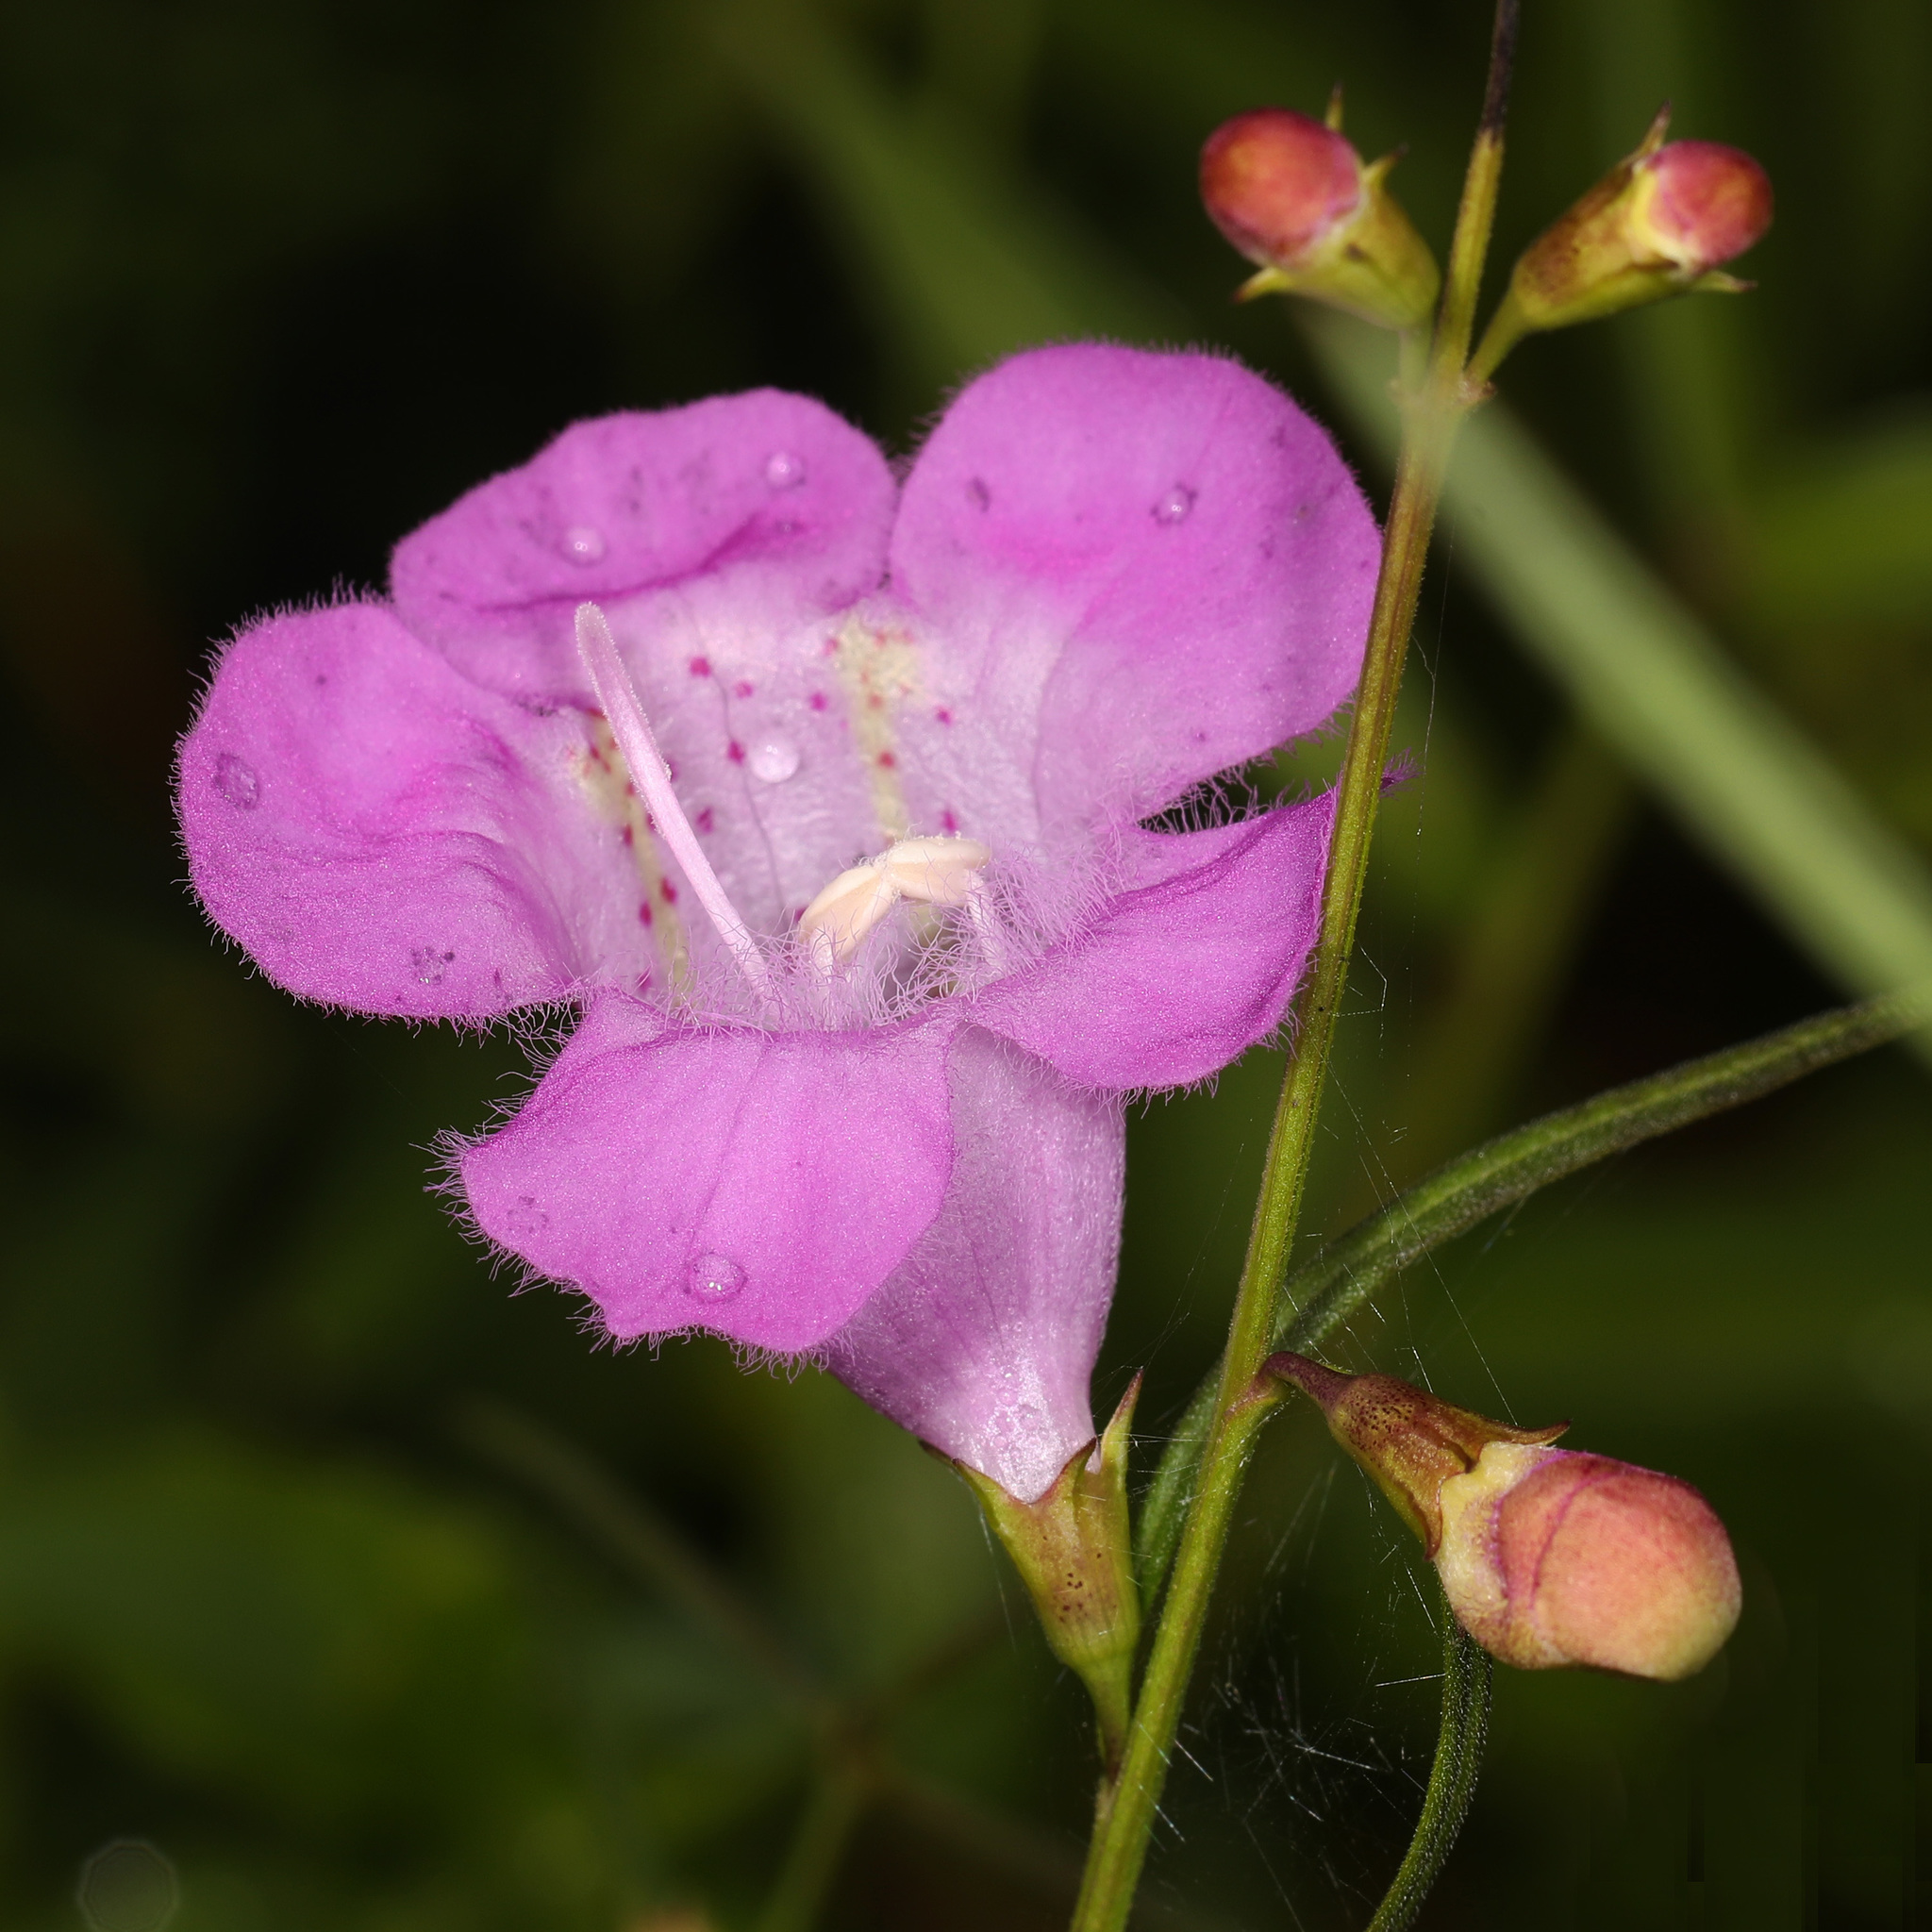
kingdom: Plantae
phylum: Tracheophyta
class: Magnoliopsida
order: Lamiales
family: Orobanchaceae
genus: Agalinis
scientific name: Agalinis purpurea
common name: Purple false foxglove
